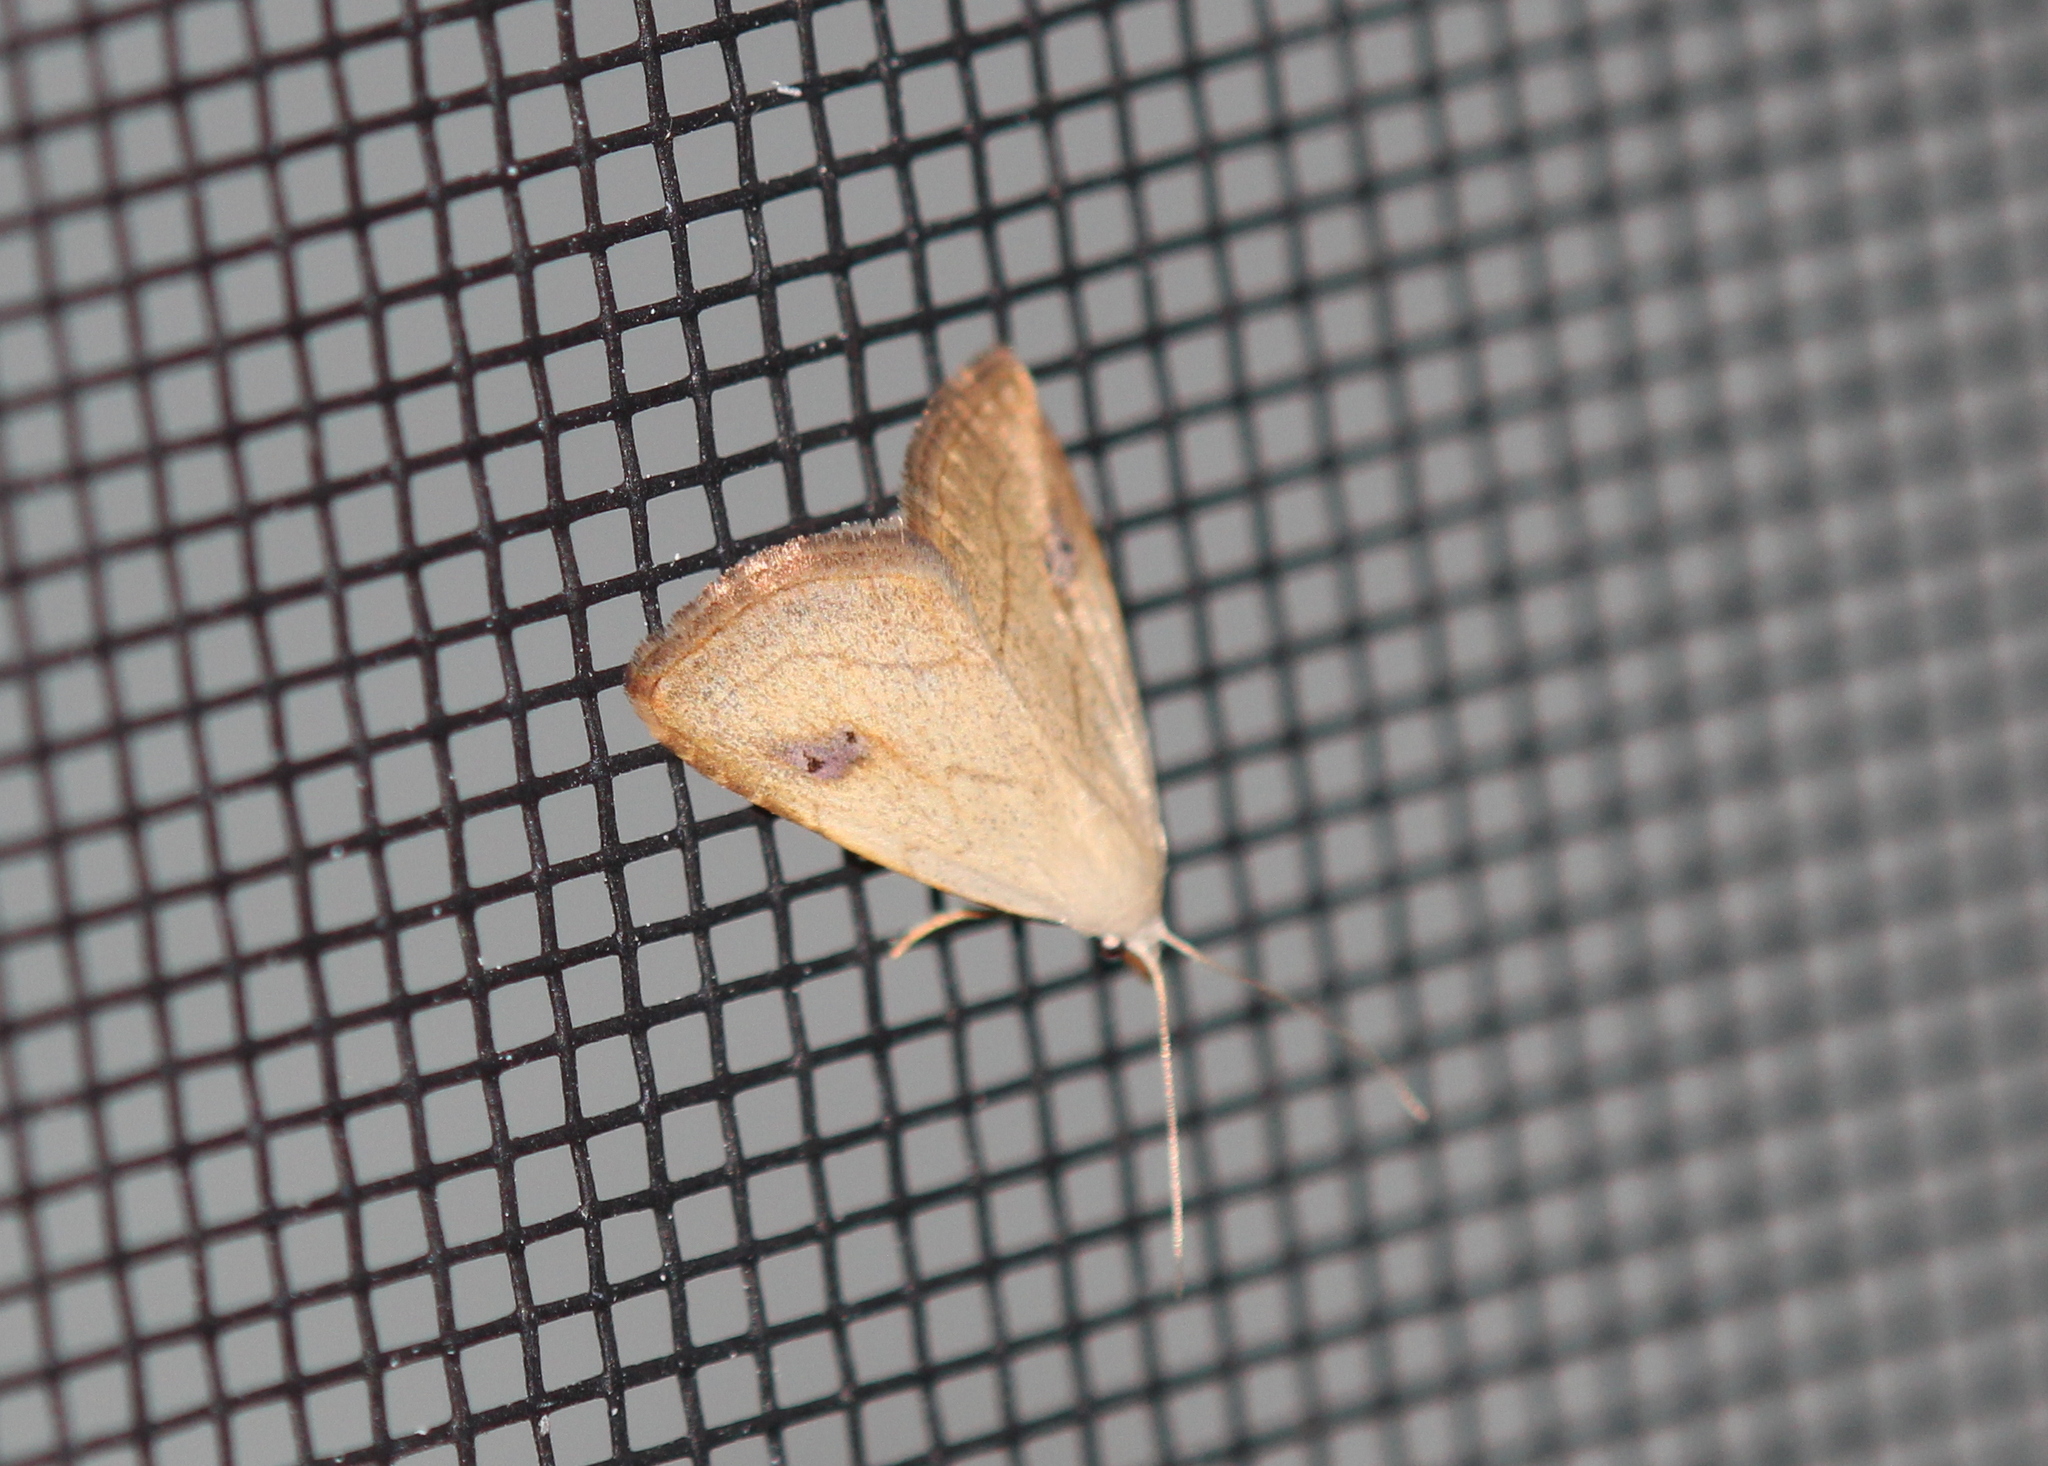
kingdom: Animalia
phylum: Arthropoda
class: Insecta
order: Lepidoptera
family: Erebidae
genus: Rivula
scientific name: Rivula propinqualis
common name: Spotted grass moth
